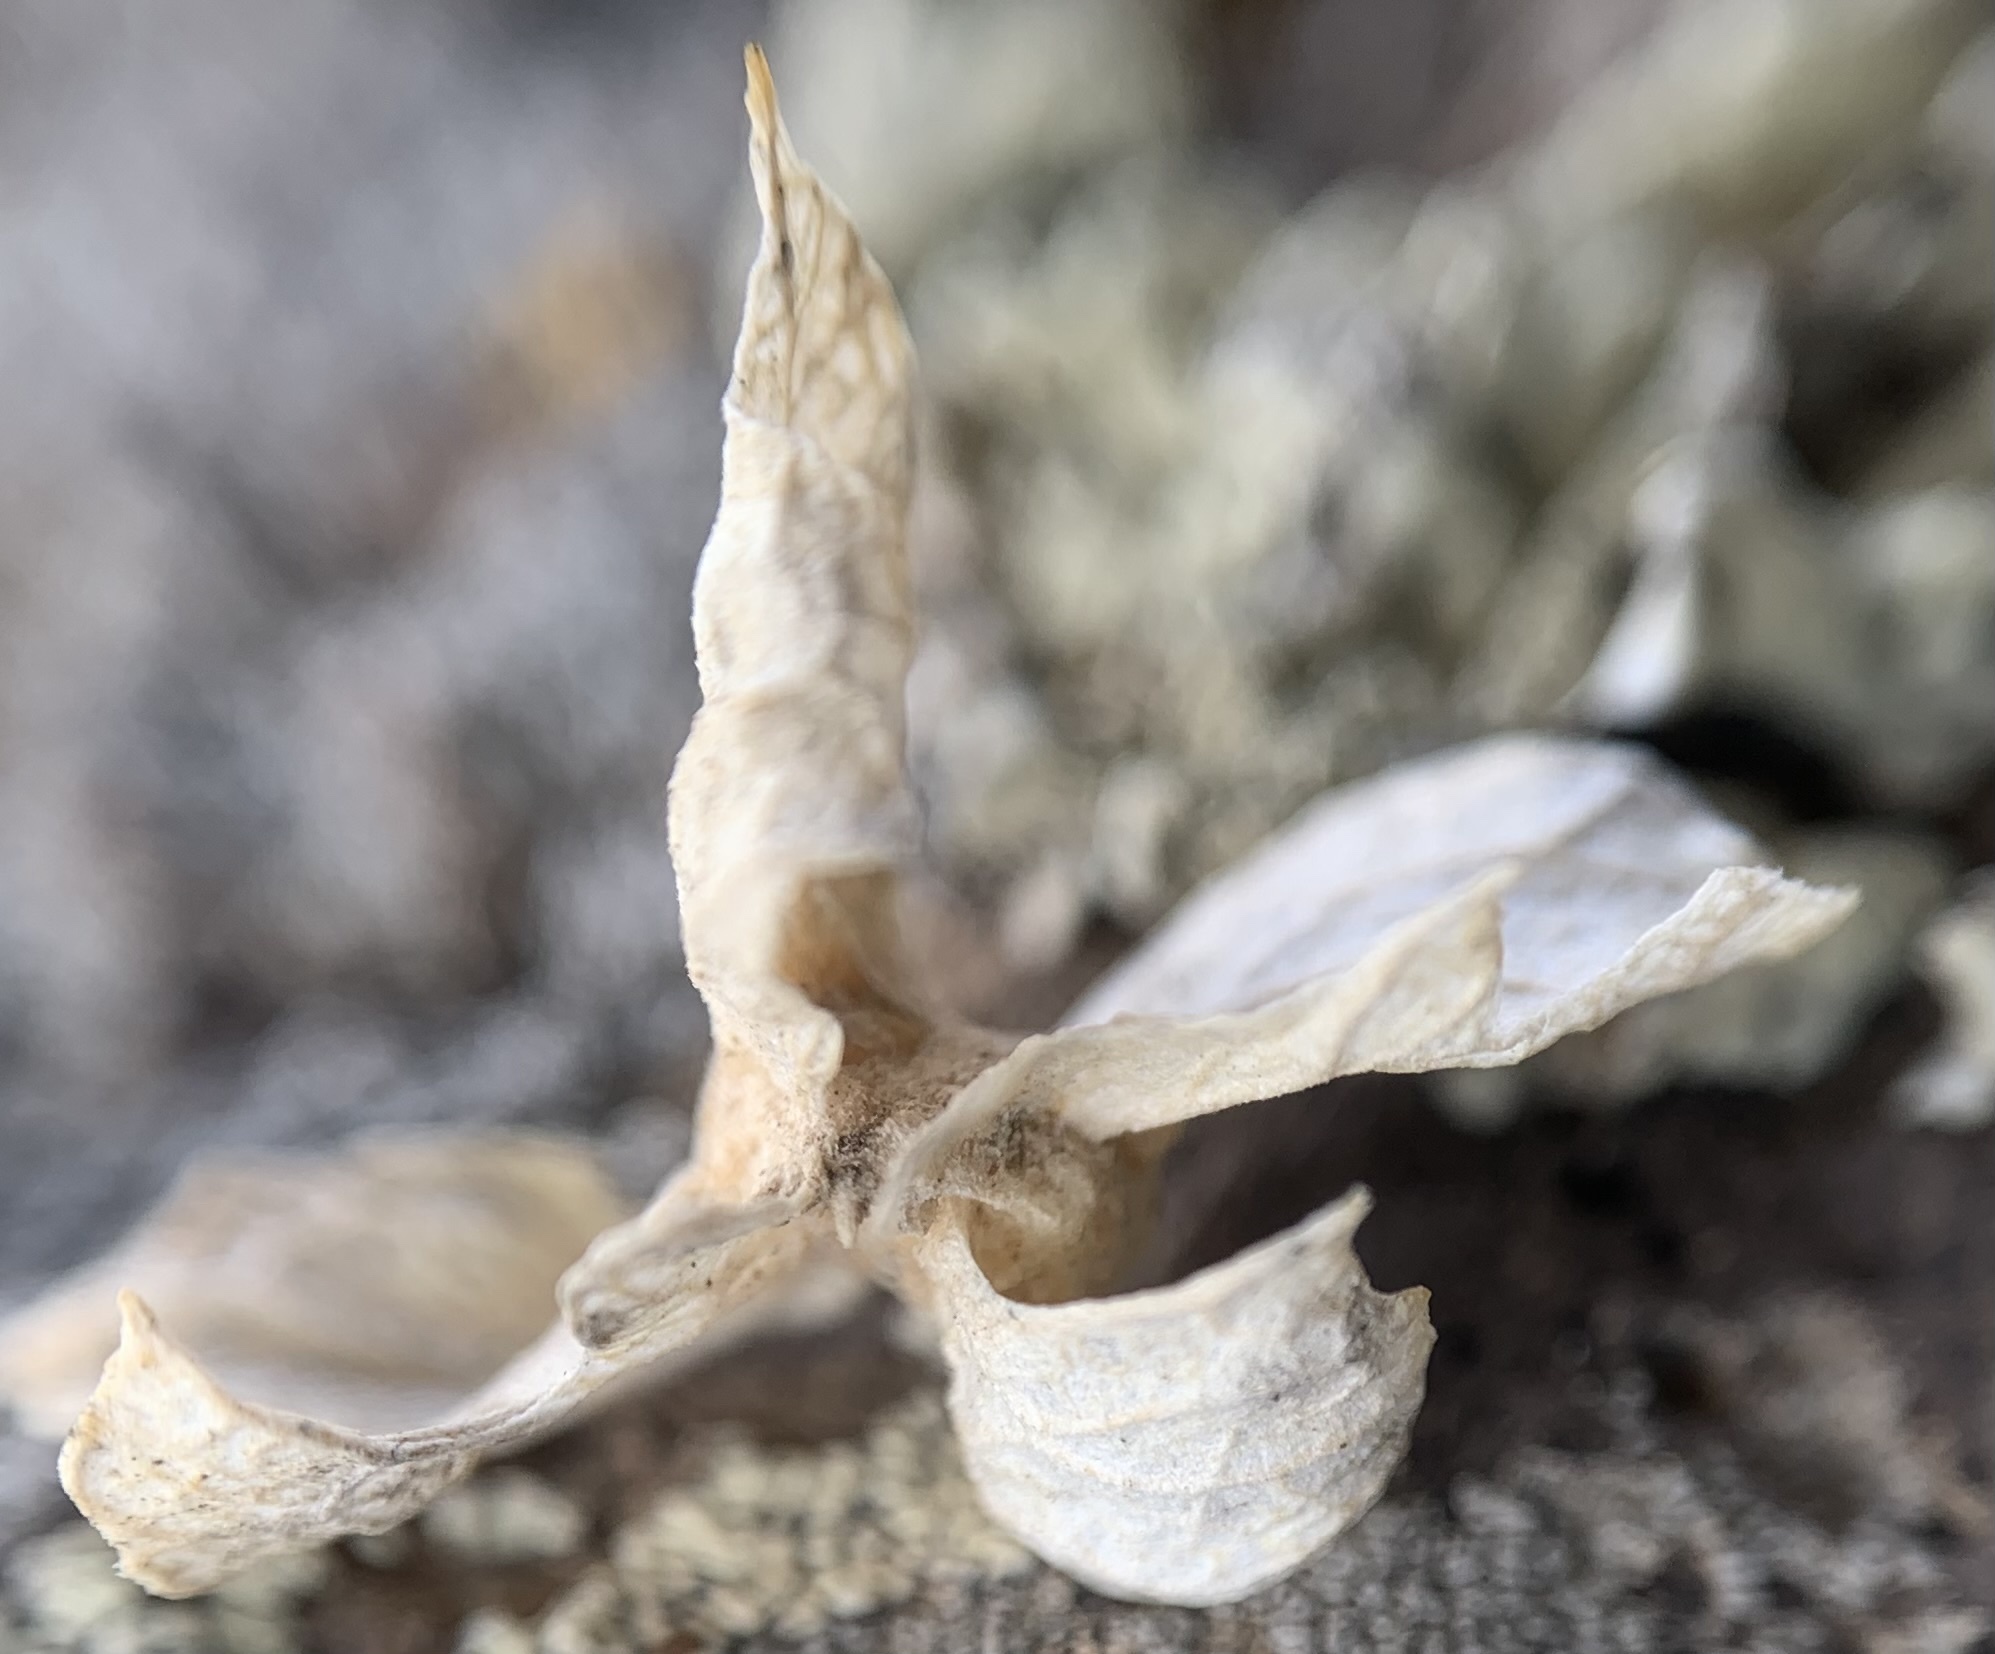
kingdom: Plantae
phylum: Tracheophyta
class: Magnoliopsida
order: Caryophyllales
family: Amaranthaceae
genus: Atriplex
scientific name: Atriplex canescens
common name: Four-wing saltbush
